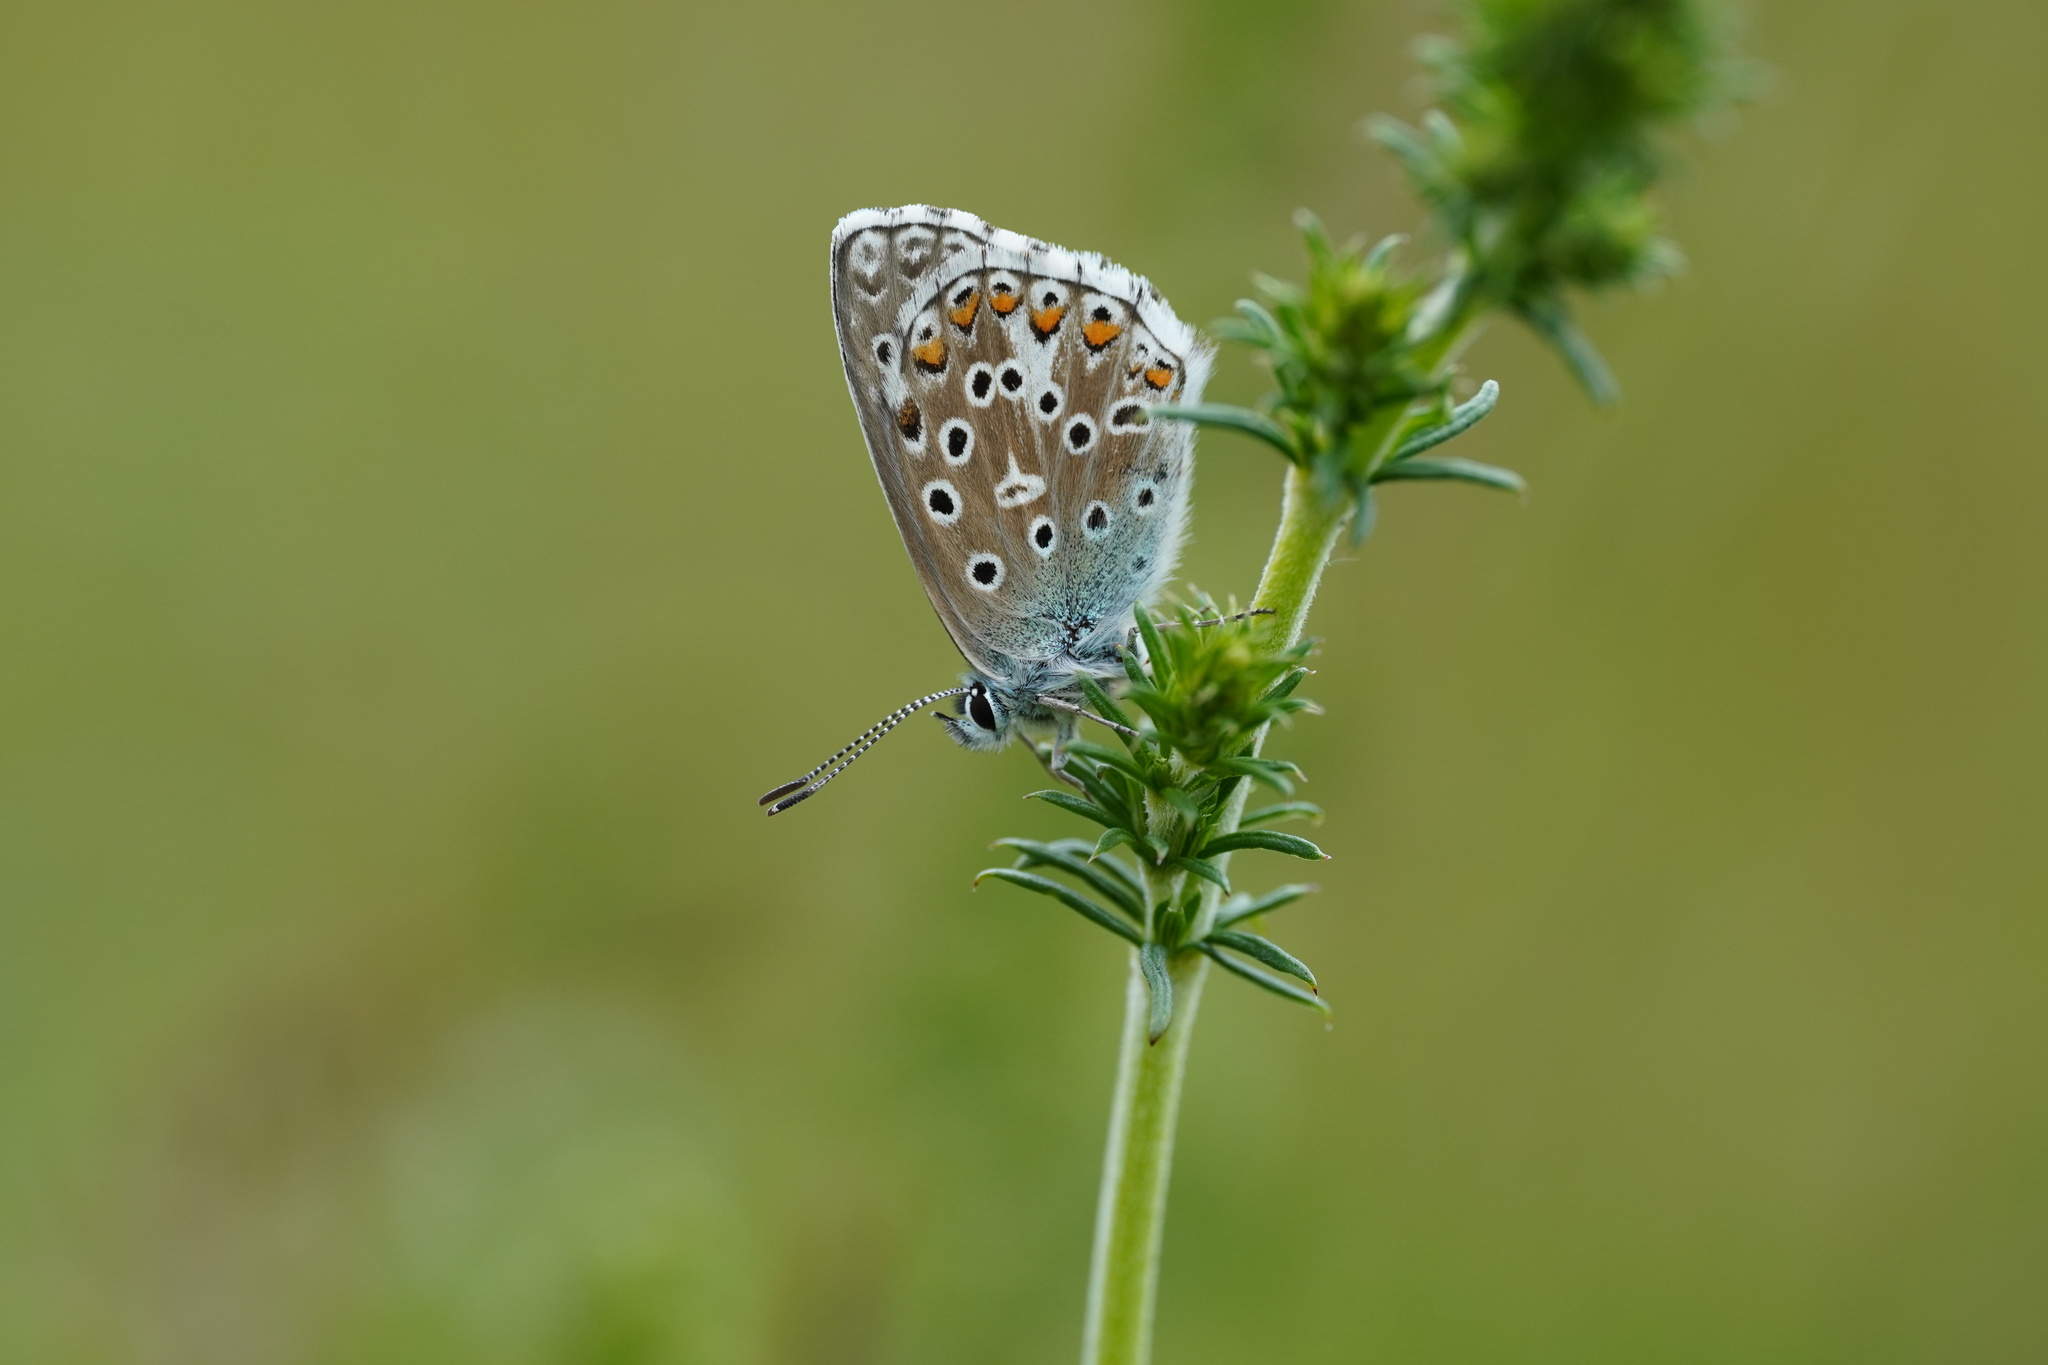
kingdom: Animalia
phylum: Arthropoda
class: Insecta
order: Lepidoptera
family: Lycaenidae
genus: Lysandra
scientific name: Lysandra bellargus
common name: Adonis blue
